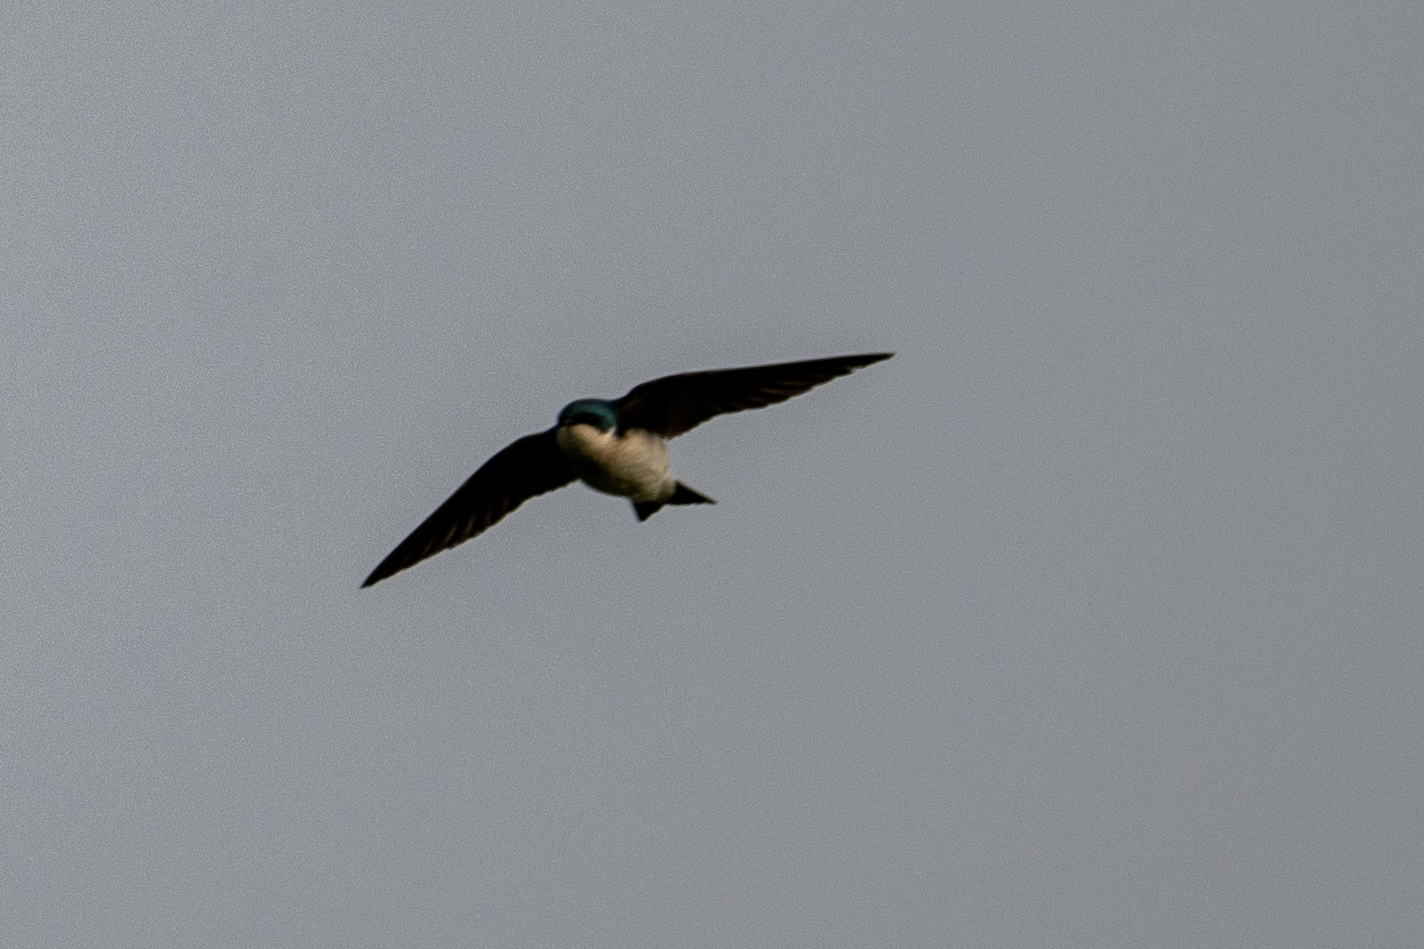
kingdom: Animalia
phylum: Chordata
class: Aves
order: Passeriformes
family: Hirundinidae
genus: Tachycineta
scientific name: Tachycineta bicolor
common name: Tree swallow
